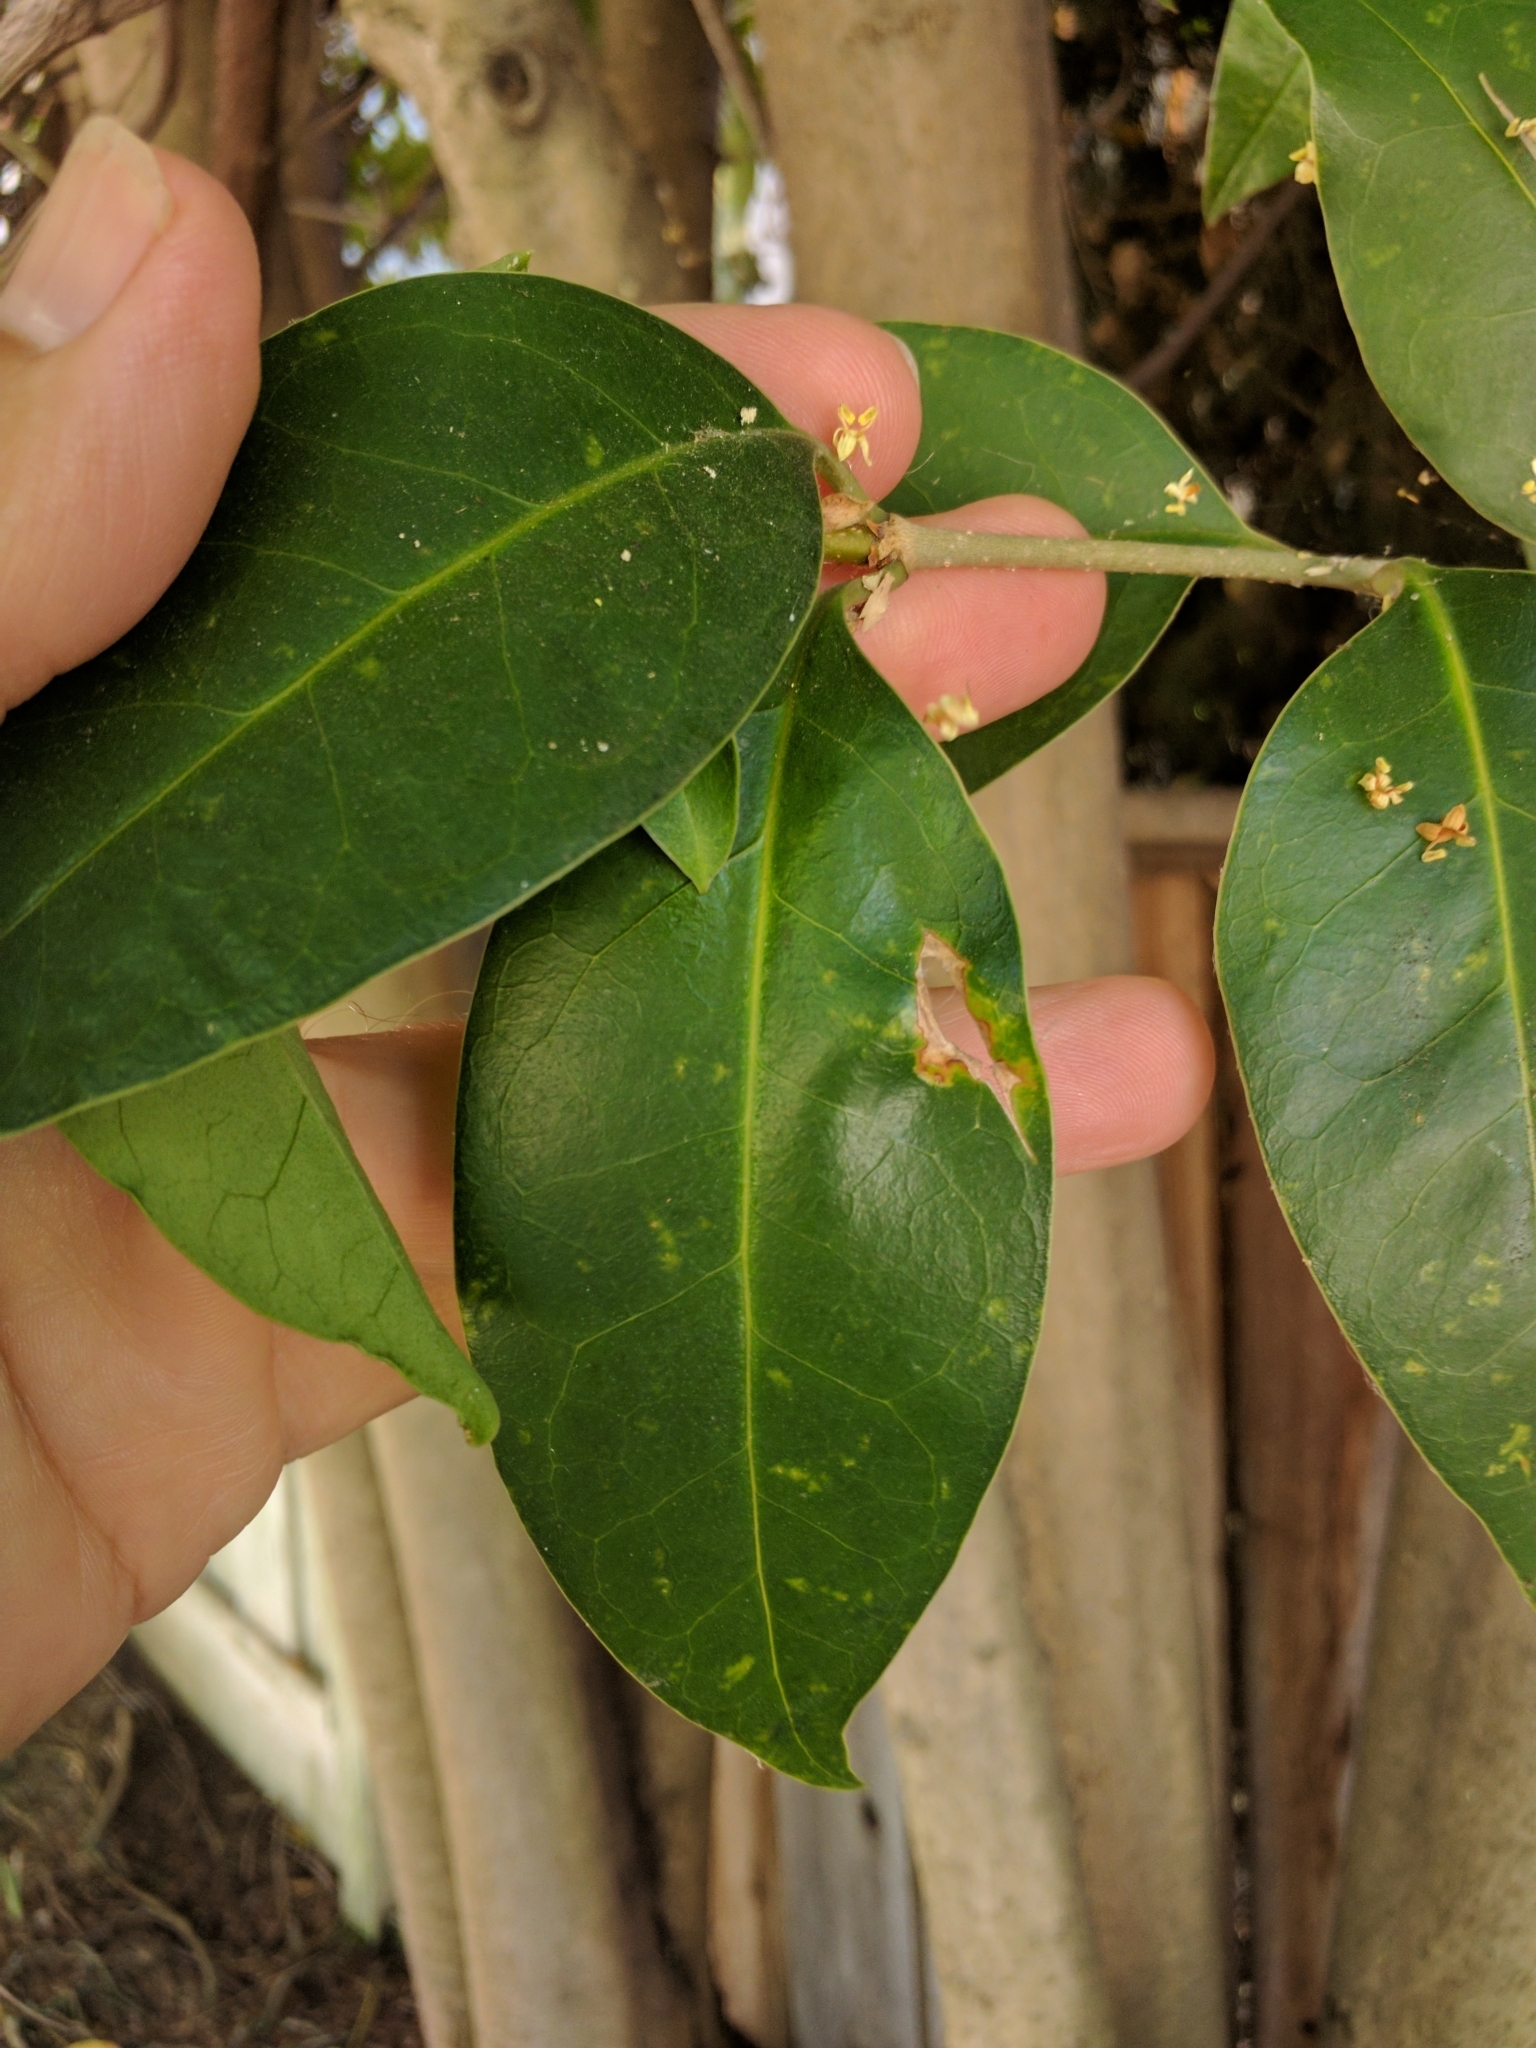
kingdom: Plantae
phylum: Tracheophyta
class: Magnoliopsida
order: Lamiales
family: Oleaceae
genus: Ligustrum
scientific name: Ligustrum lucidum
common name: Glossy privet
